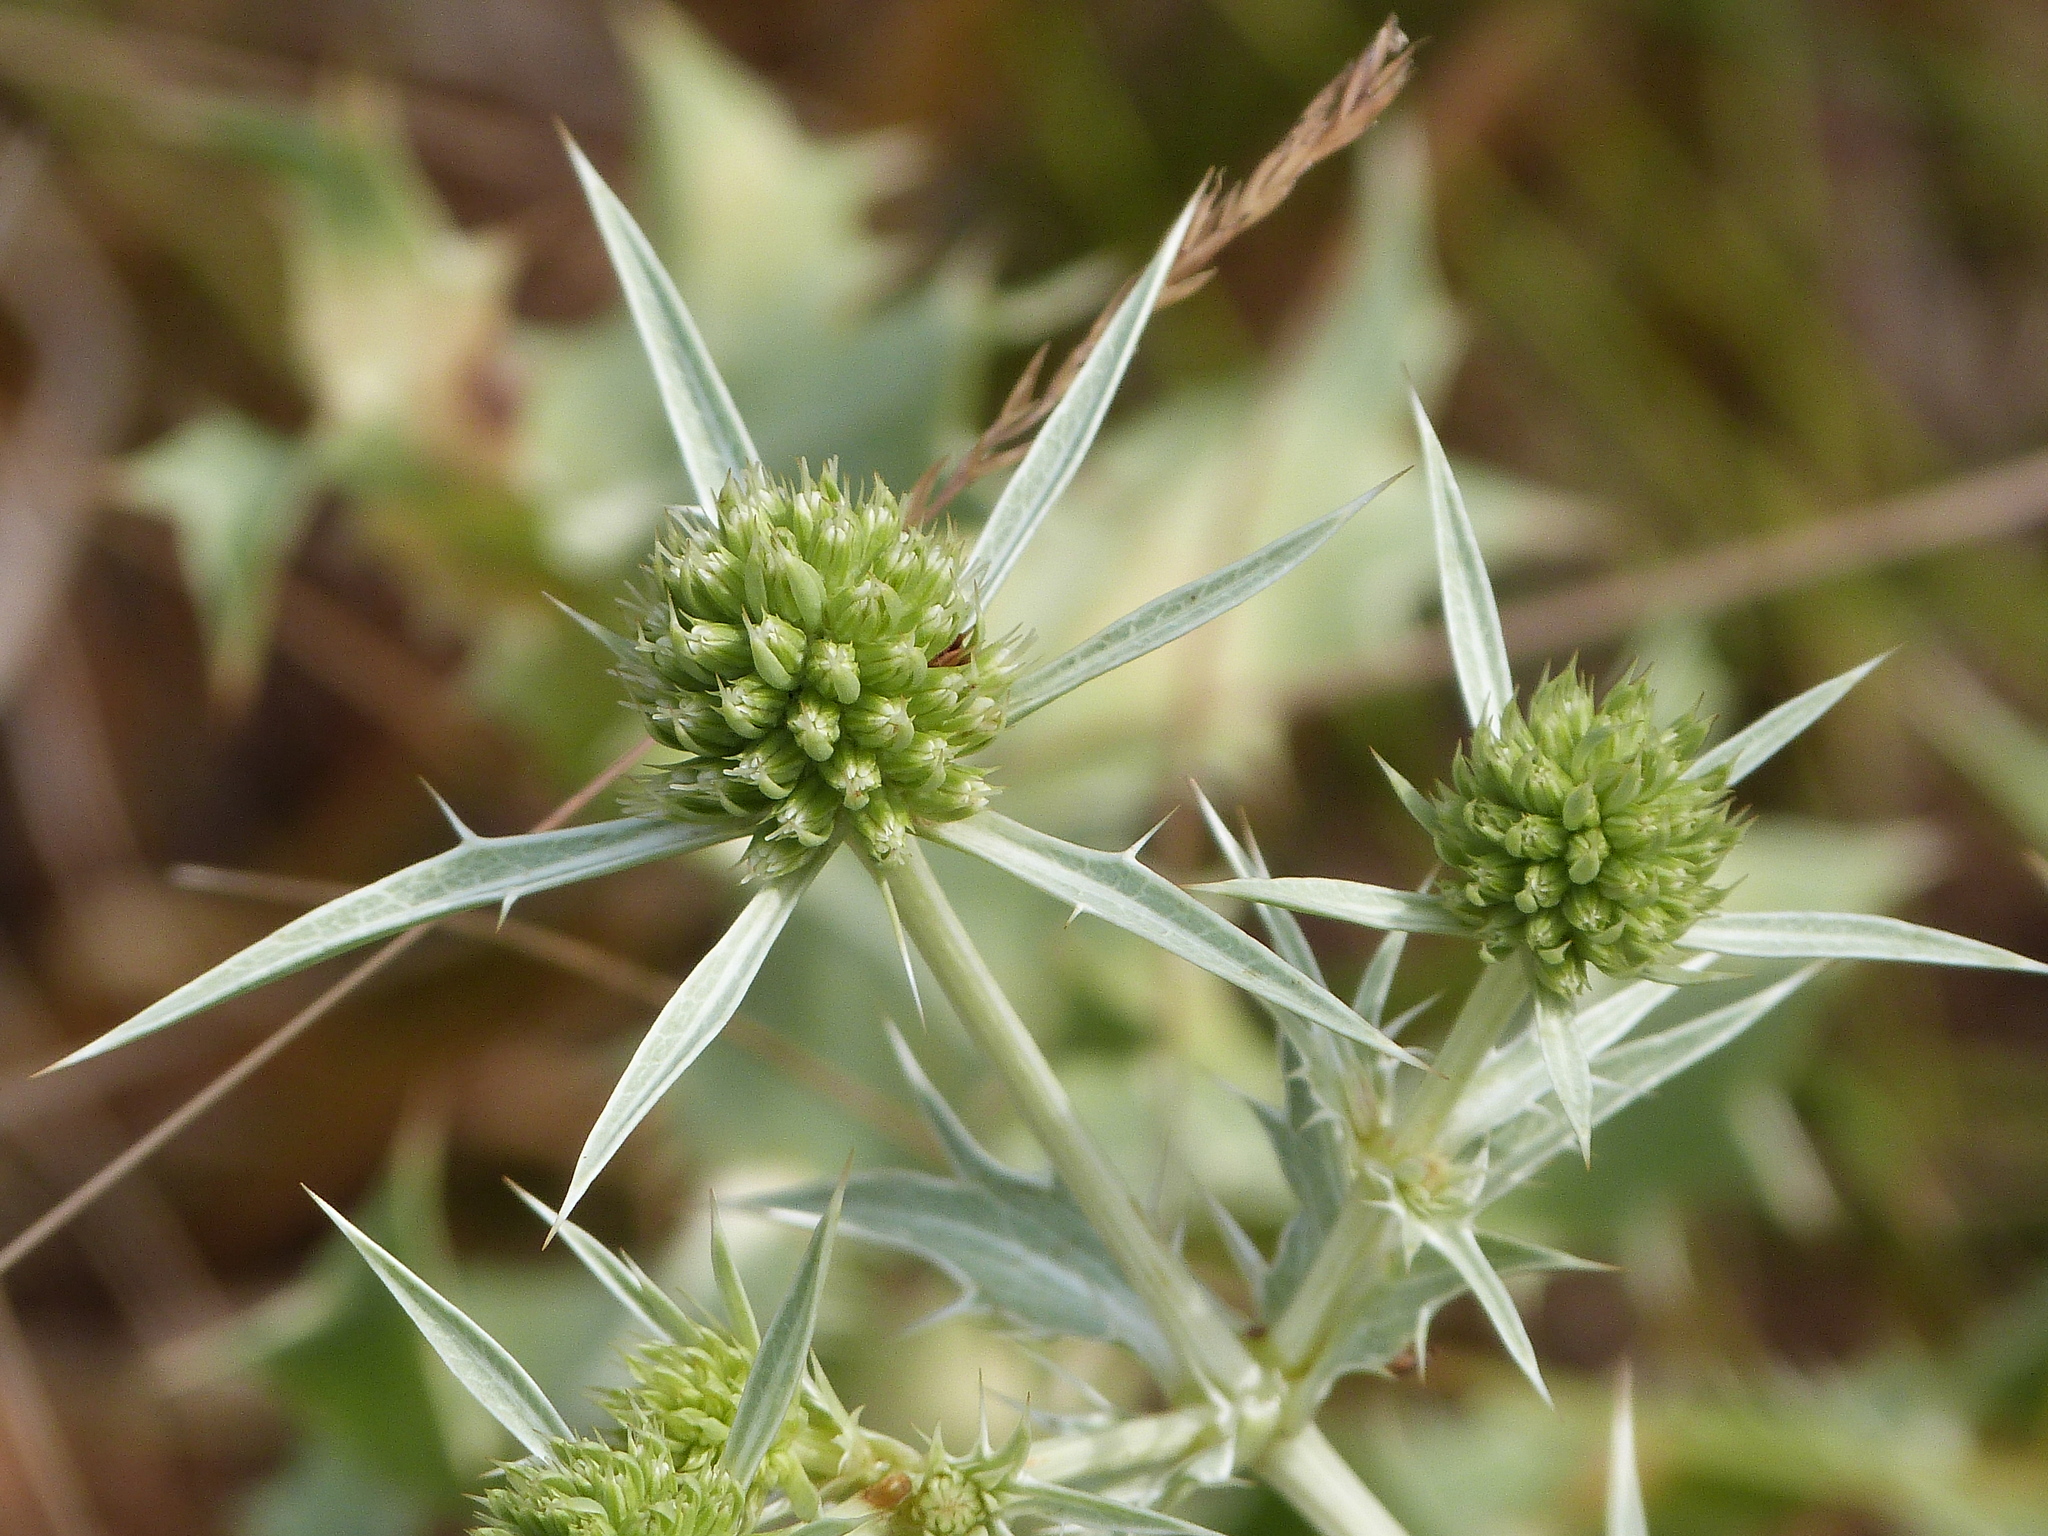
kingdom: Plantae
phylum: Tracheophyta
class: Magnoliopsida
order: Apiales
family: Apiaceae
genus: Eryngium
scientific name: Eryngium campestre
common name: Field eryngo
